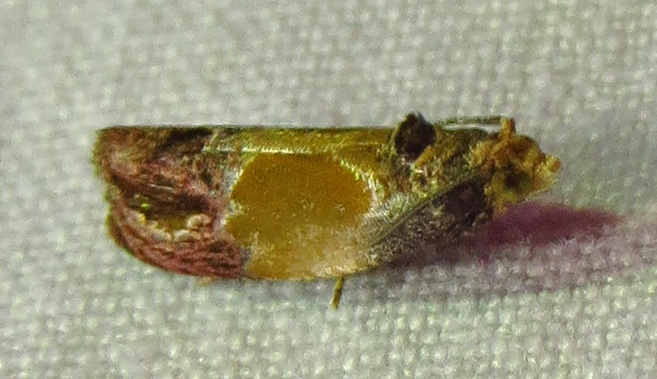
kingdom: Animalia
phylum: Arthropoda
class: Insecta
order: Lepidoptera
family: Tortricidae
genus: Eumarozia
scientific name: Eumarozia malachitana
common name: Sculptured moth
